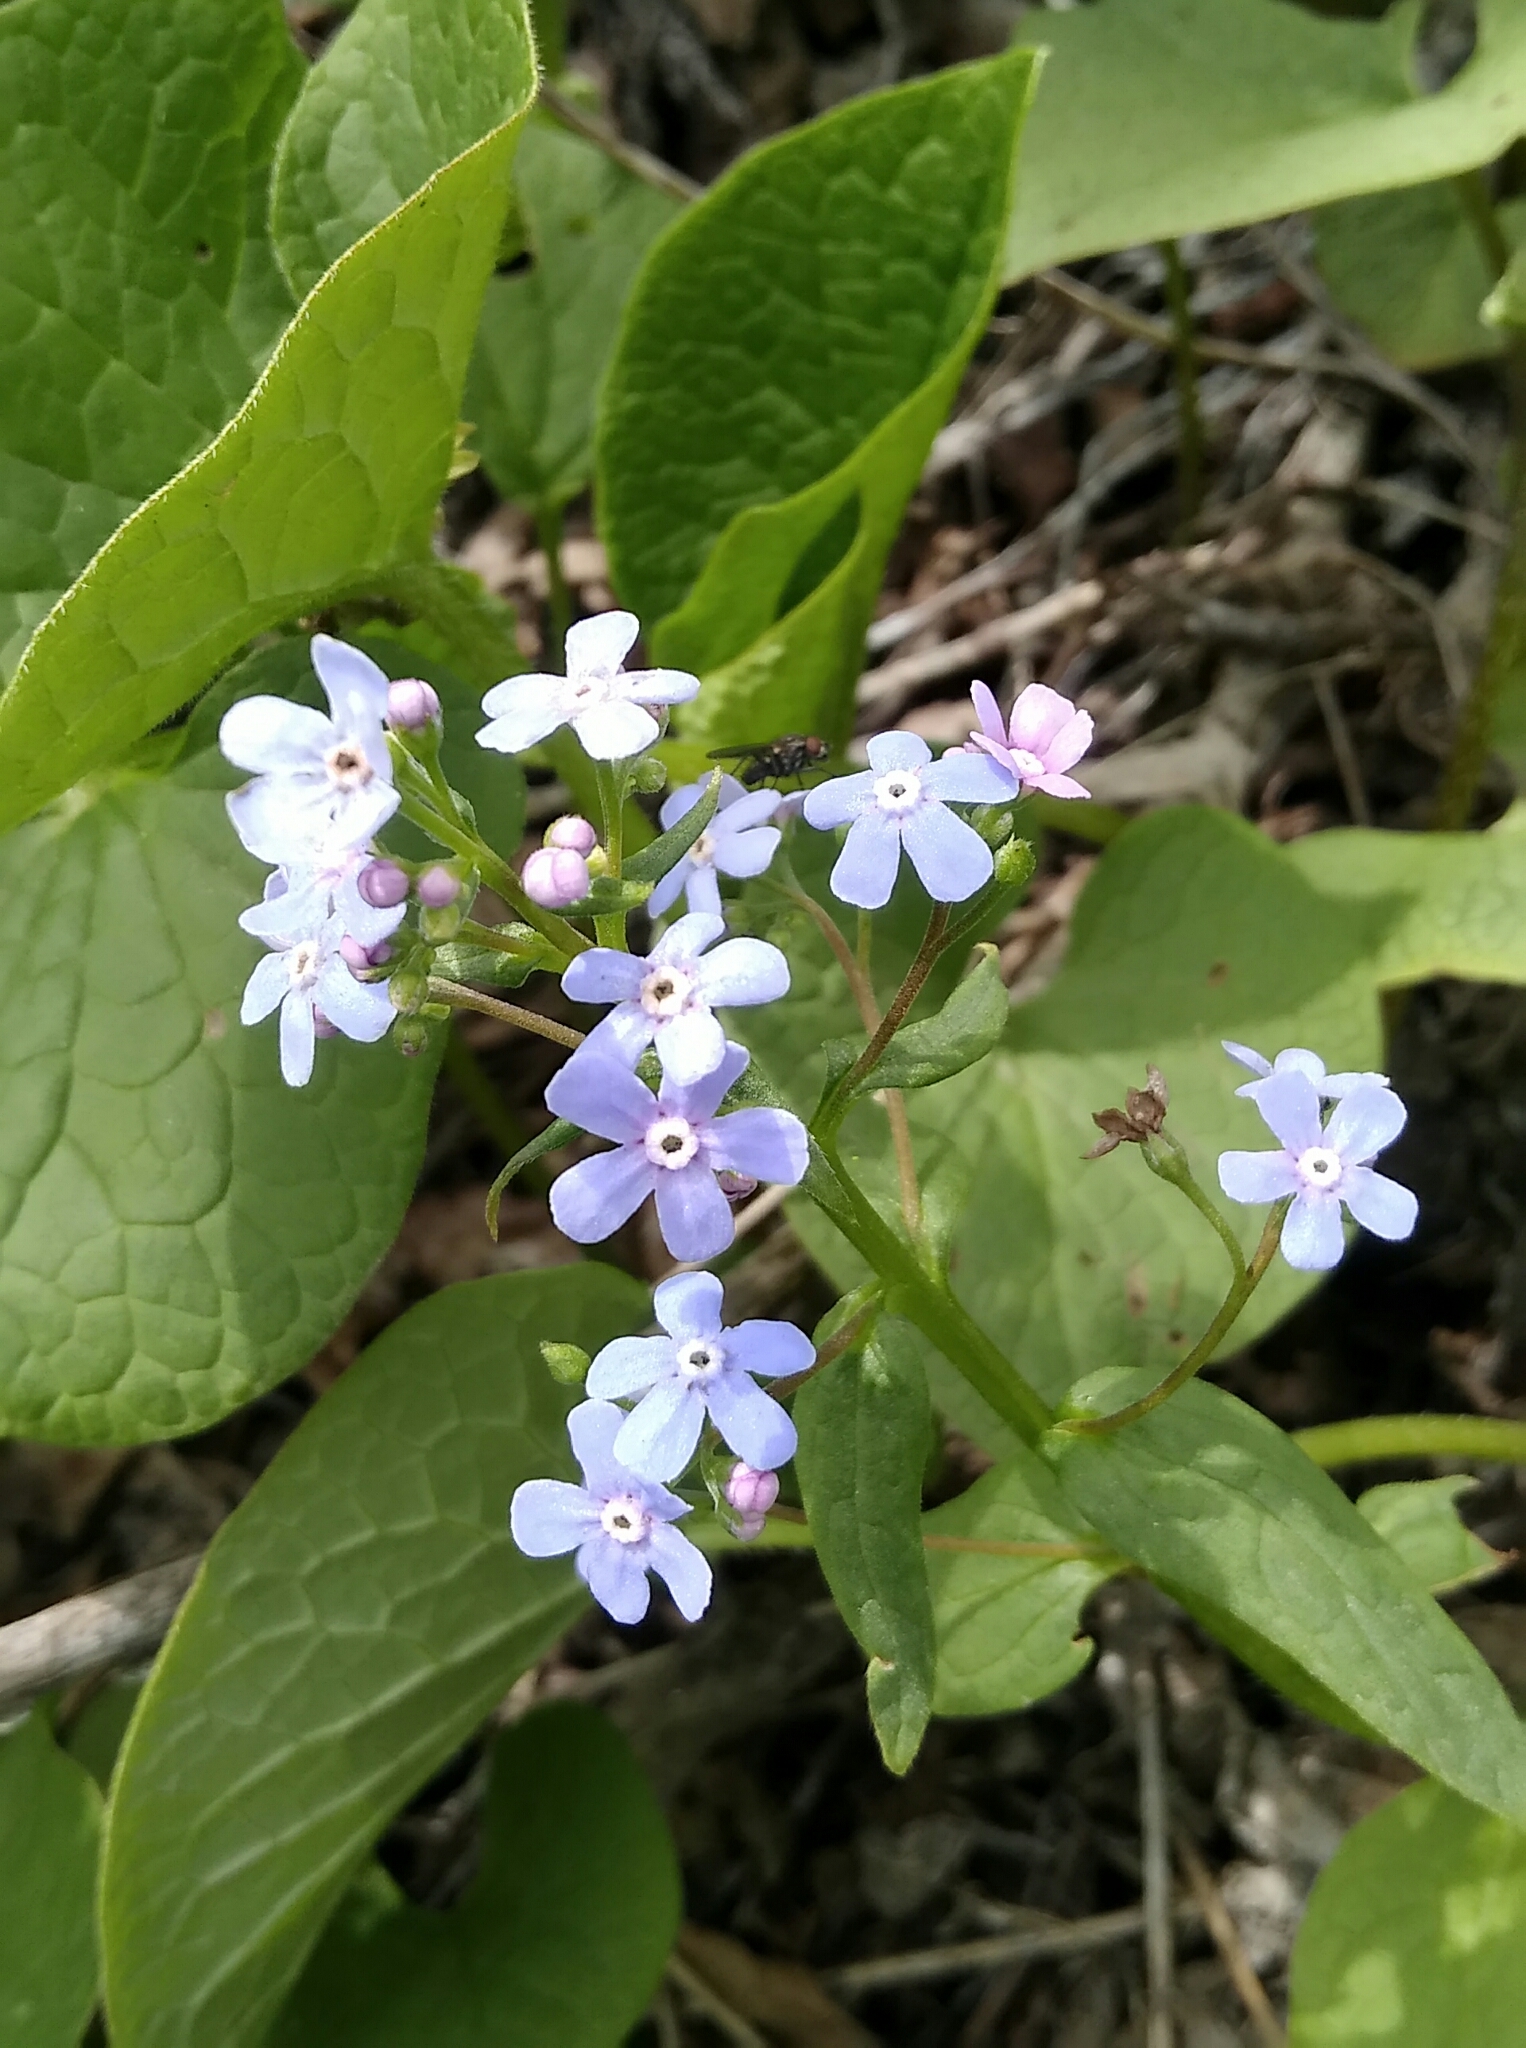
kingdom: Plantae
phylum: Tracheophyta
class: Magnoliopsida
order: Boraginales
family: Boraginaceae
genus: Brunnera
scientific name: Brunnera sibirica
